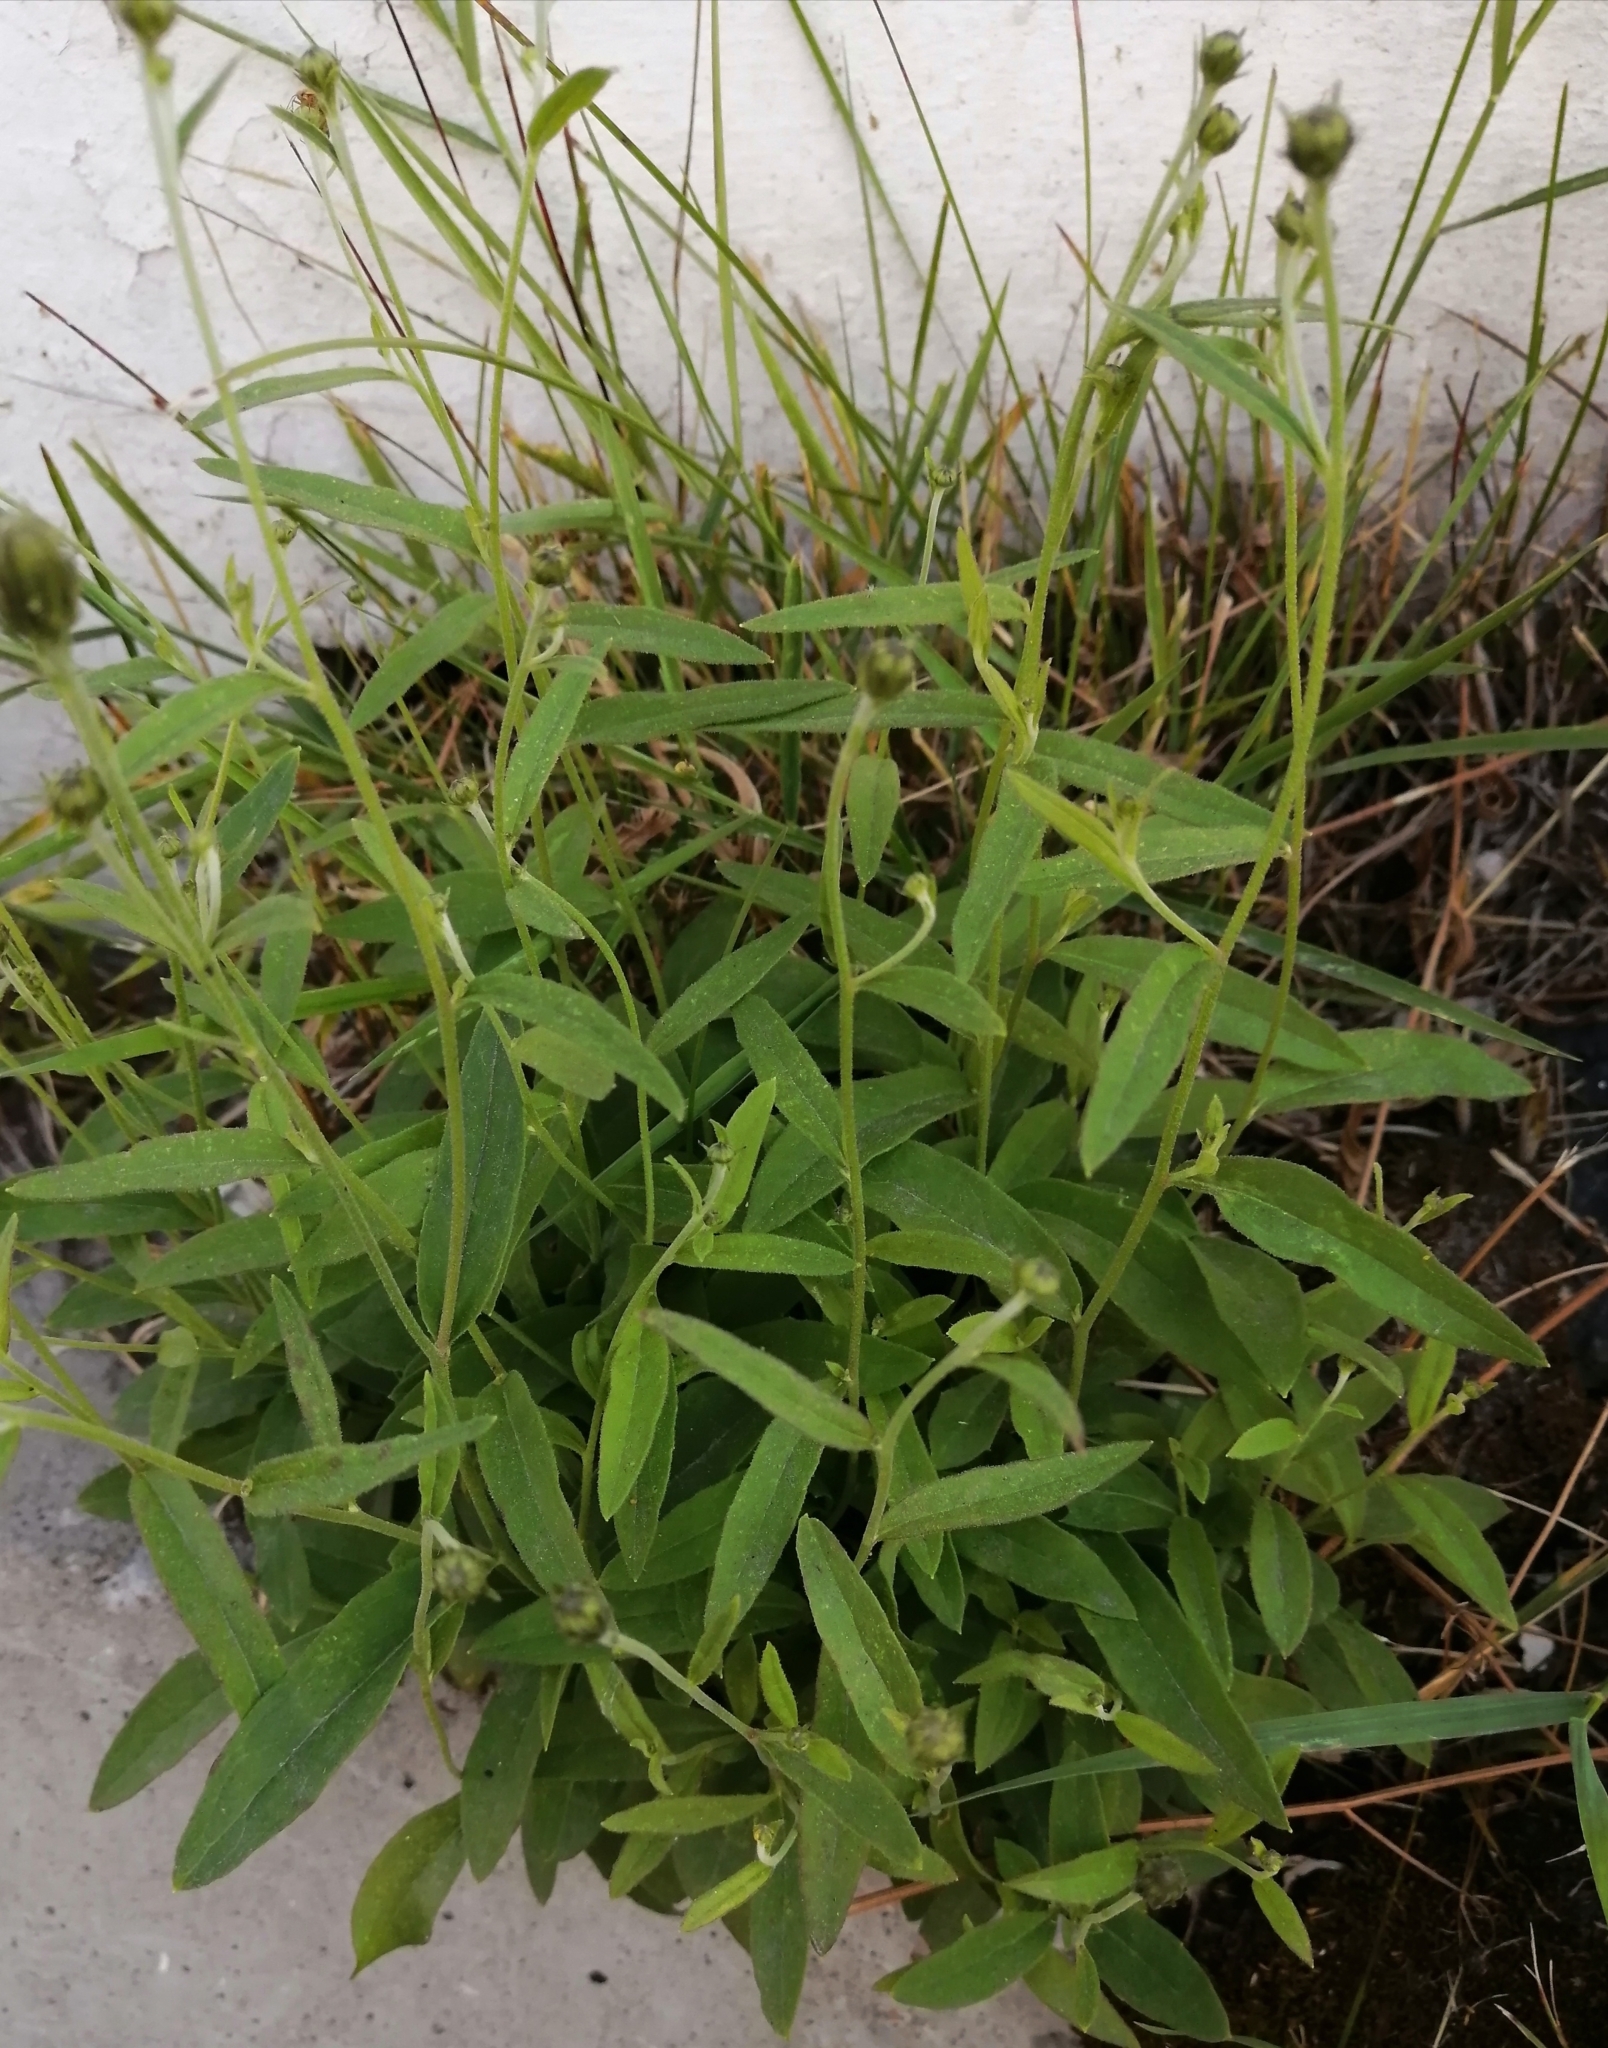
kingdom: Plantae
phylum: Tracheophyta
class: Magnoliopsida
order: Asterales
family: Asteraceae
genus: Hieracium
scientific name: Hieracium umbellatum
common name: Northern hawkweed
